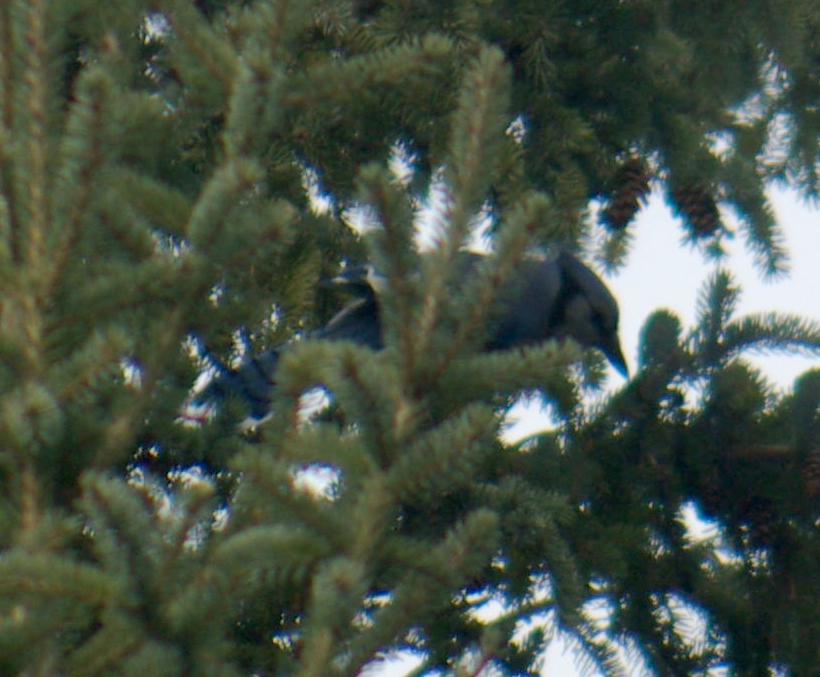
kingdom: Animalia
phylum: Chordata
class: Aves
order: Passeriformes
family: Corvidae
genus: Cyanocitta
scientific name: Cyanocitta cristata
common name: Blue jay
